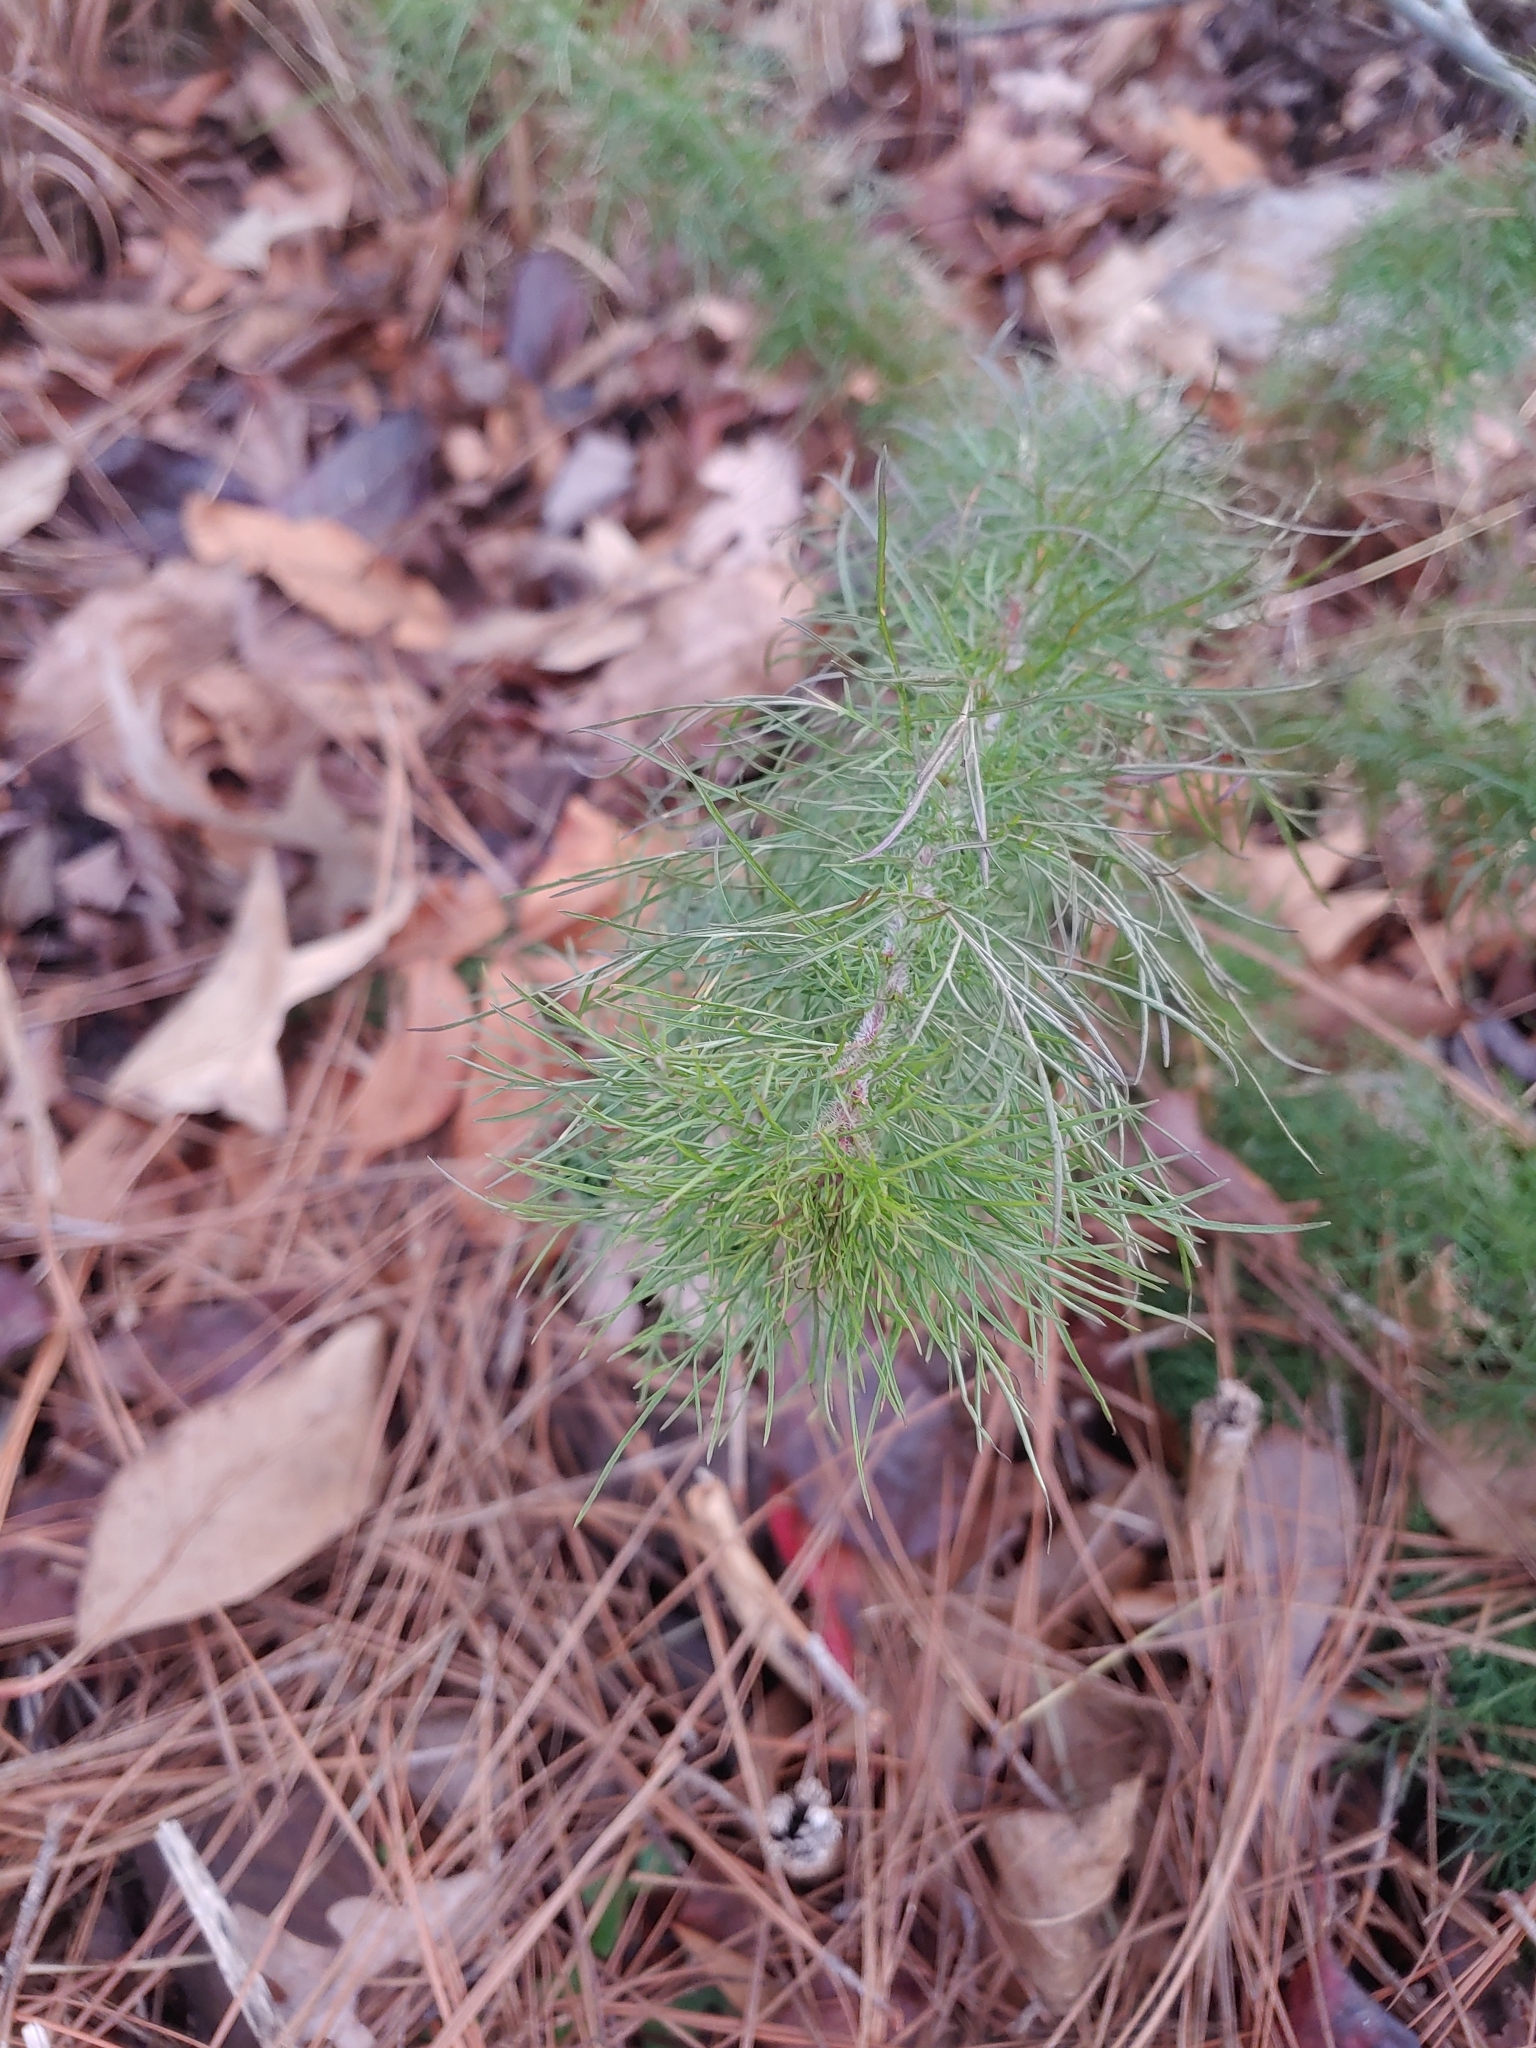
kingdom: Plantae
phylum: Tracheophyta
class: Magnoliopsida
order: Asterales
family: Asteraceae
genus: Eupatorium
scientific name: Eupatorium capillifolium
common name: Dog-fennel
